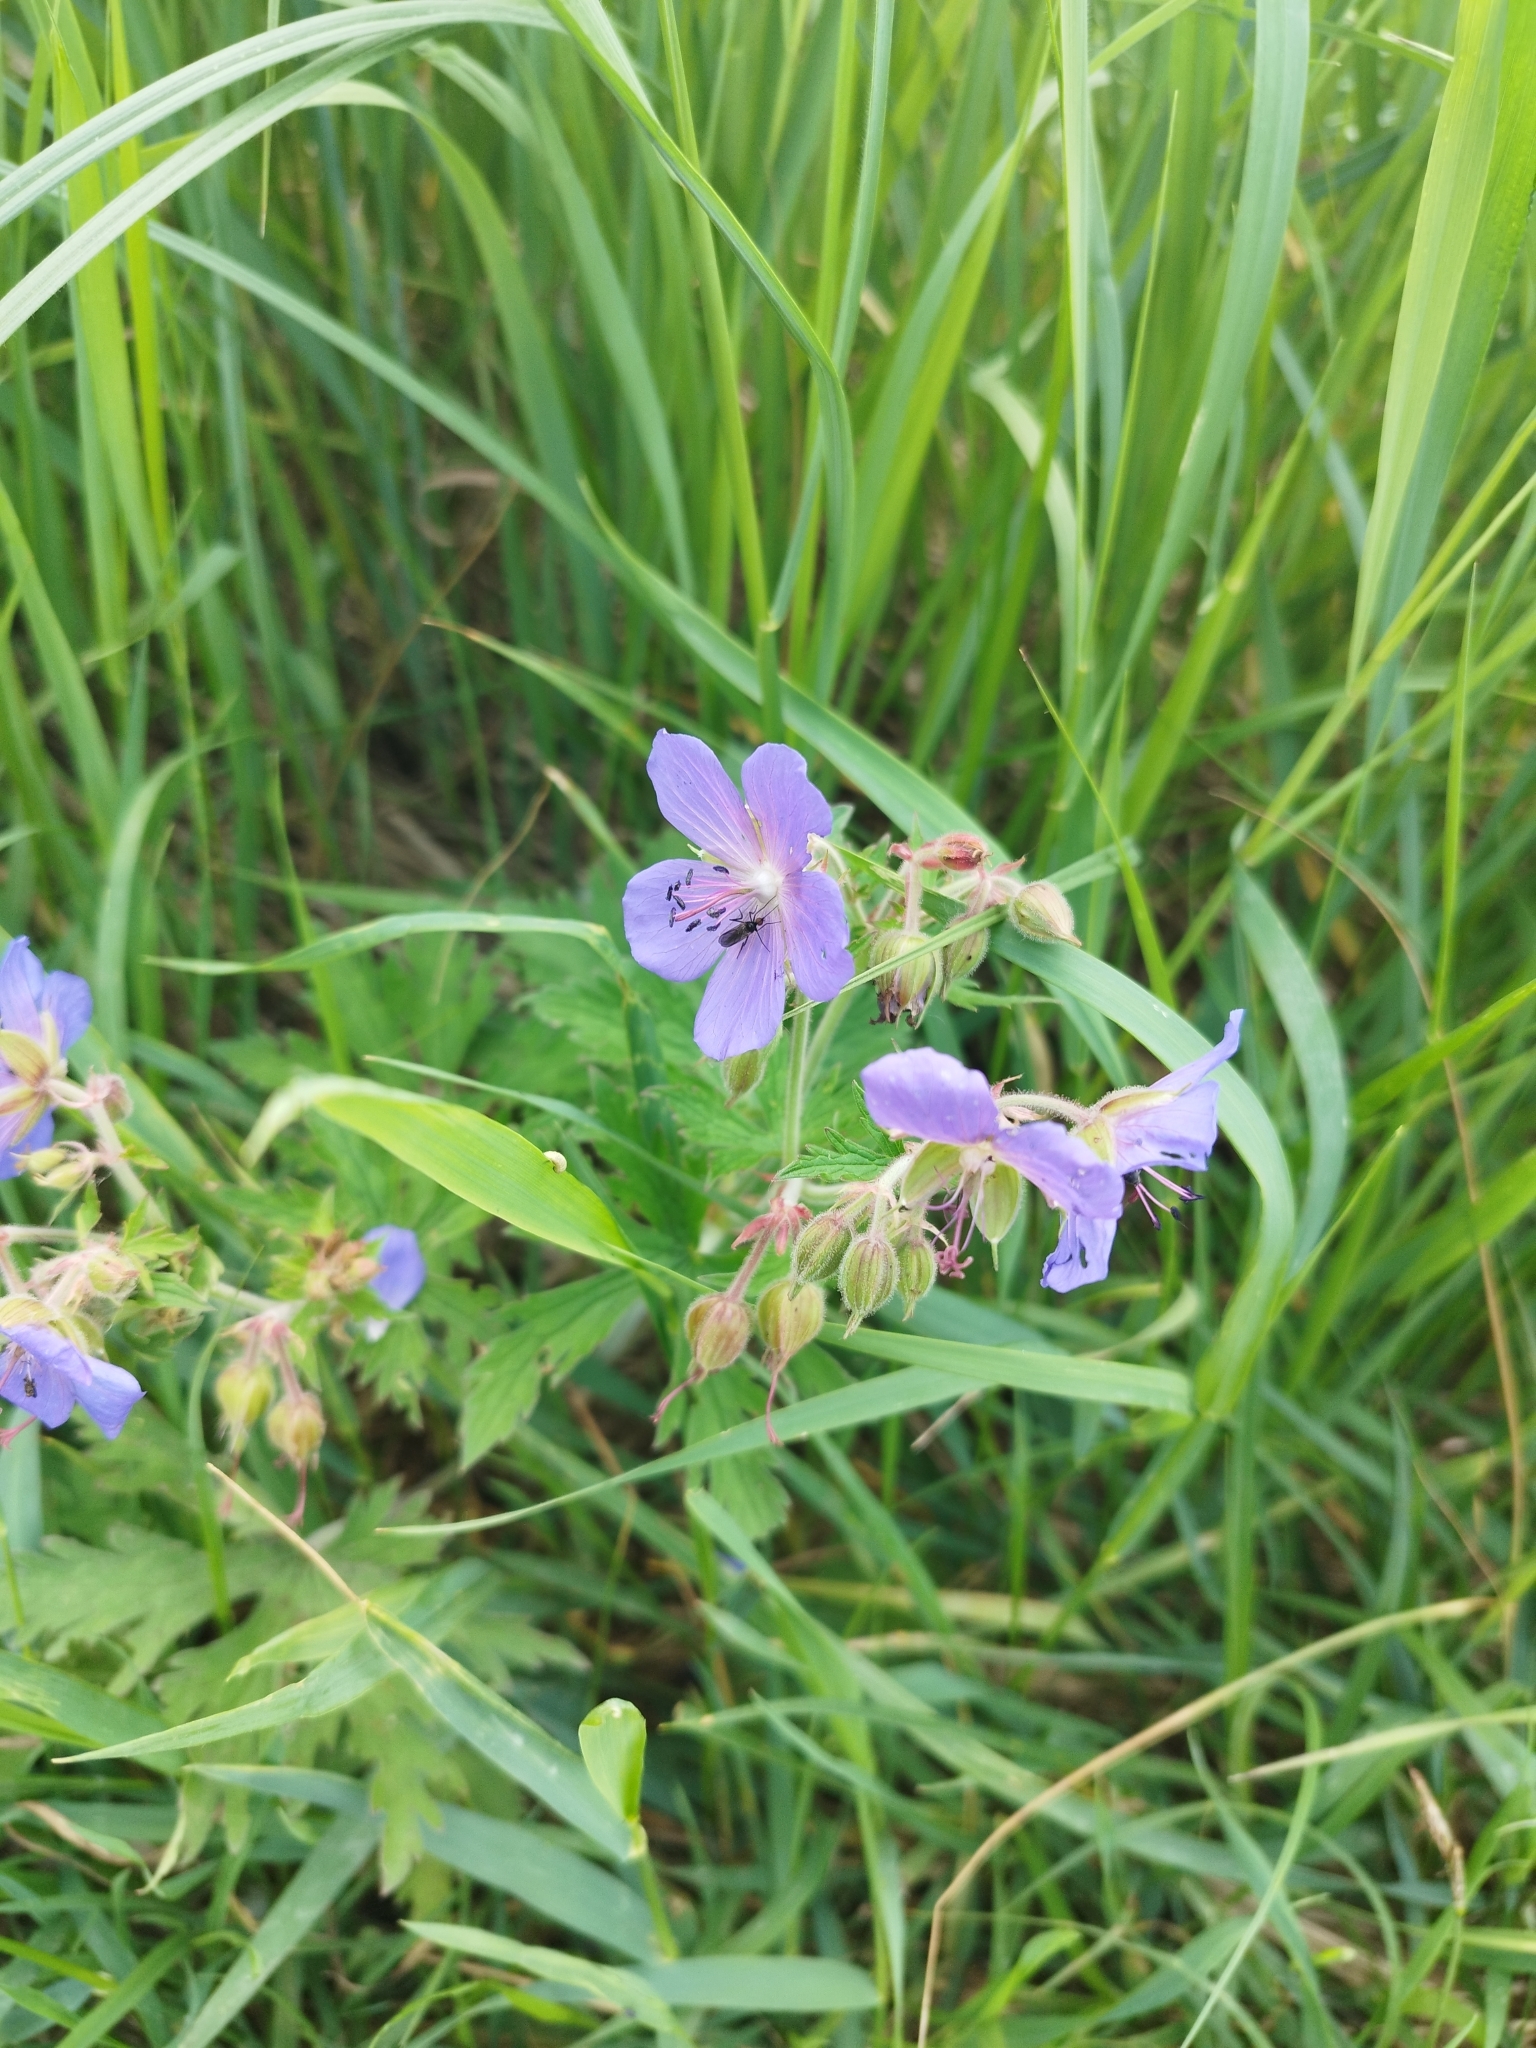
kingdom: Plantae
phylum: Tracheophyta
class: Magnoliopsida
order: Geraniales
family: Geraniaceae
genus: Geranium
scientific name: Geranium pratense
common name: Meadow crane's-bill
